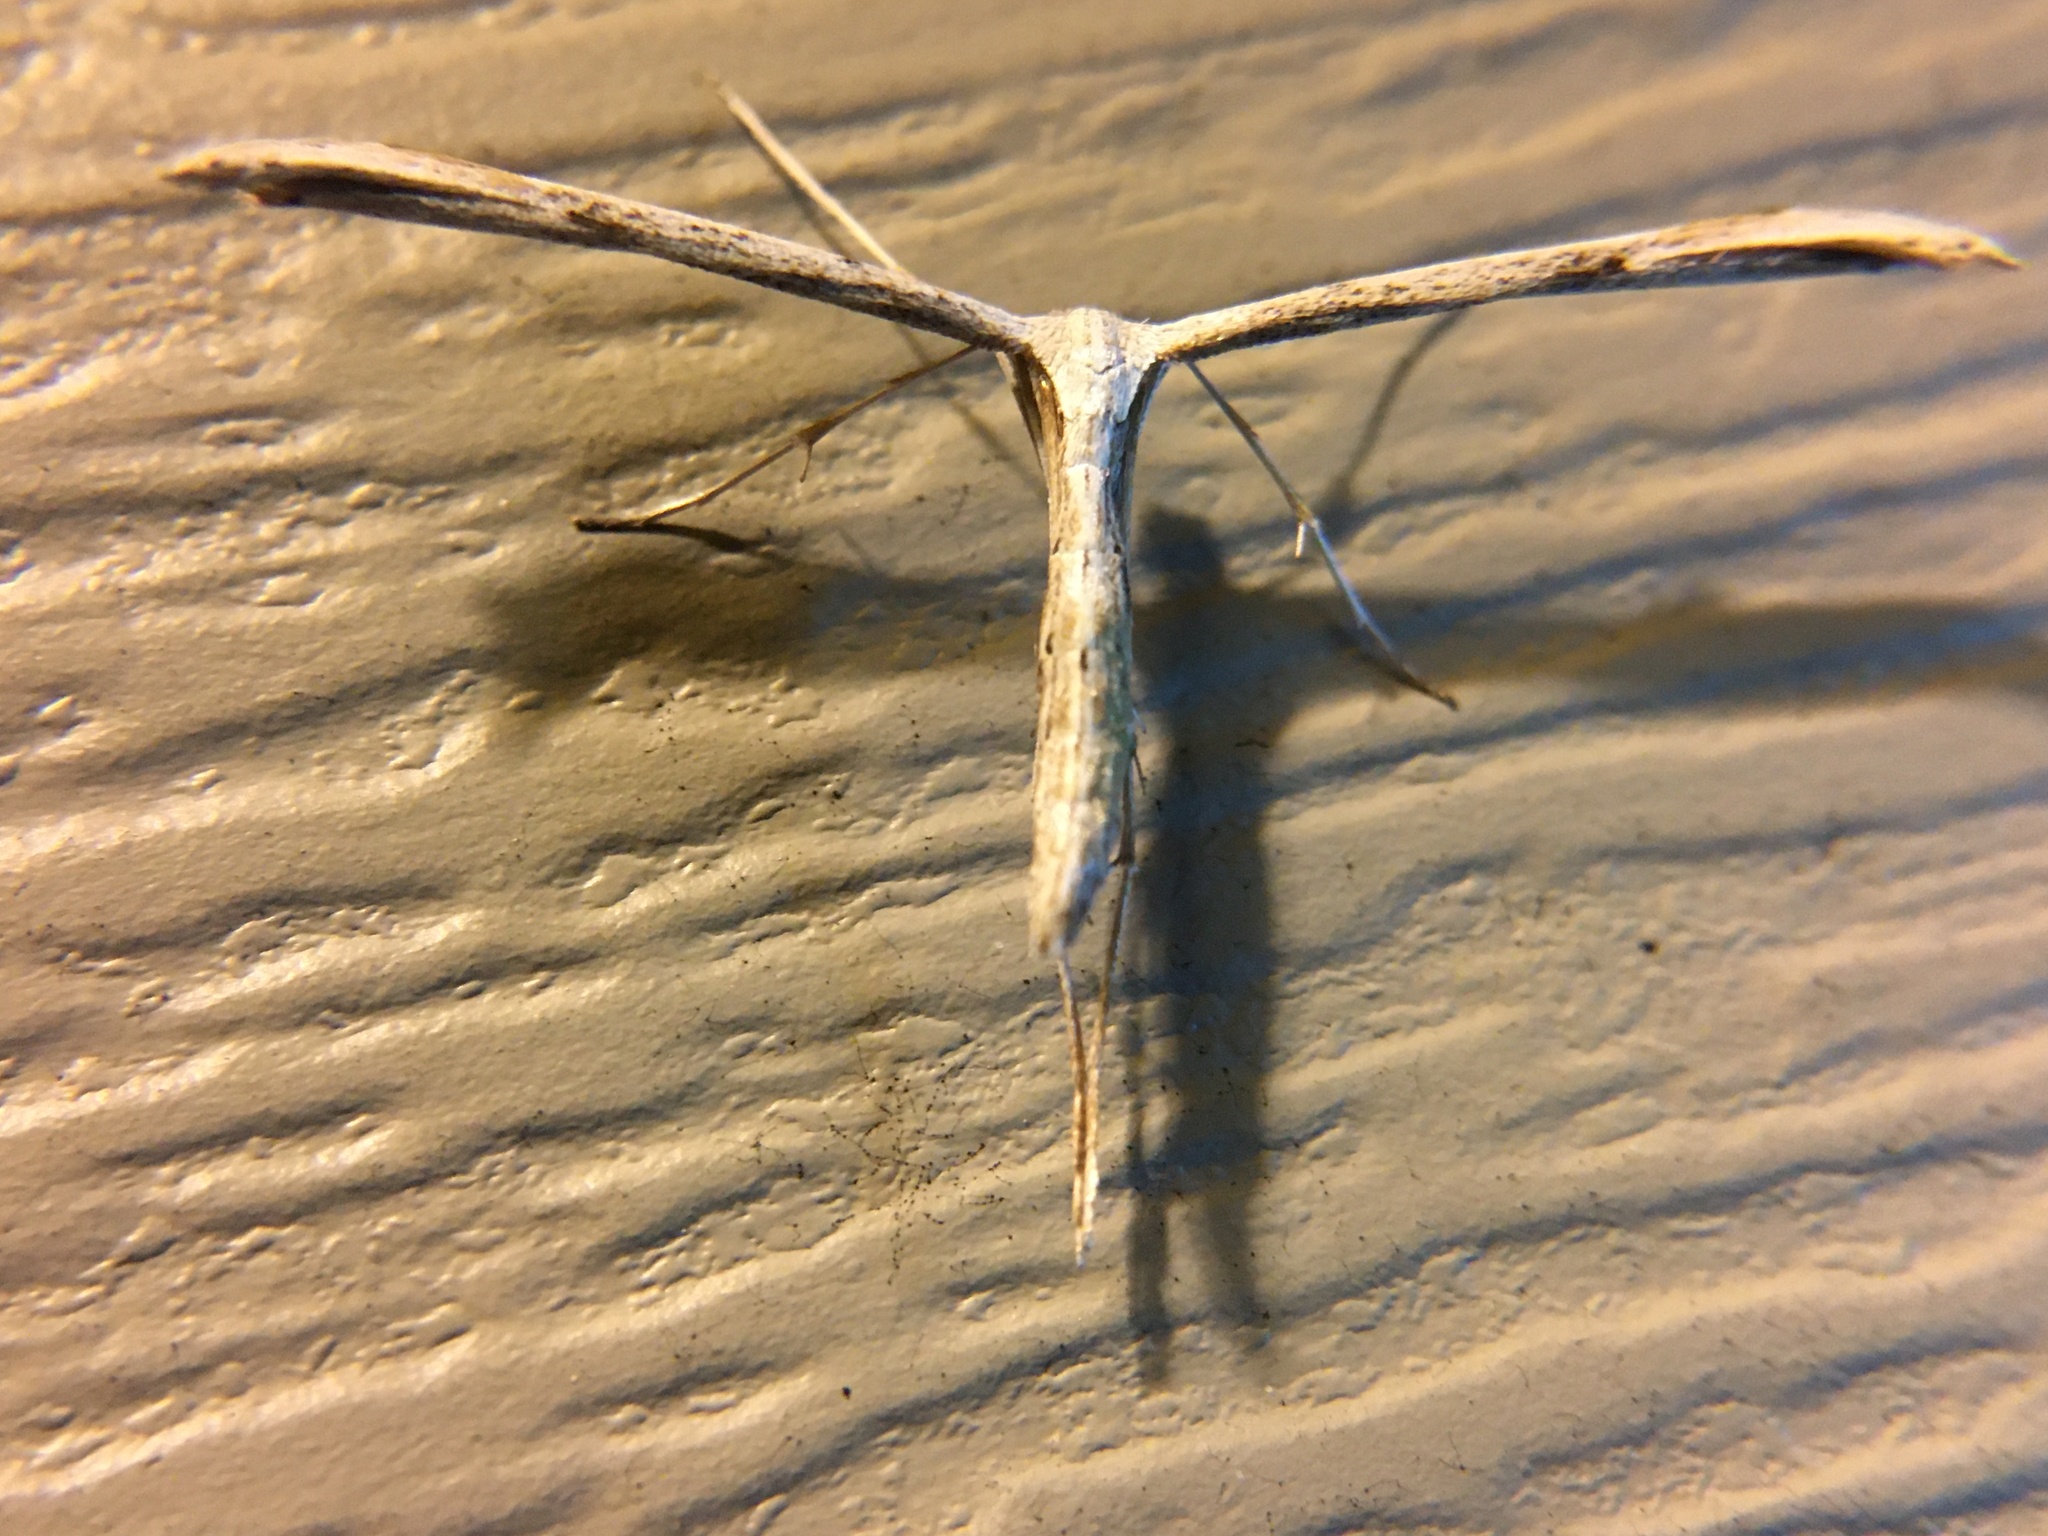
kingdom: Animalia
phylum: Arthropoda
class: Insecta
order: Lepidoptera
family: Pterophoridae
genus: Emmelina
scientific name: Emmelina monodactyla
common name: Common plume
